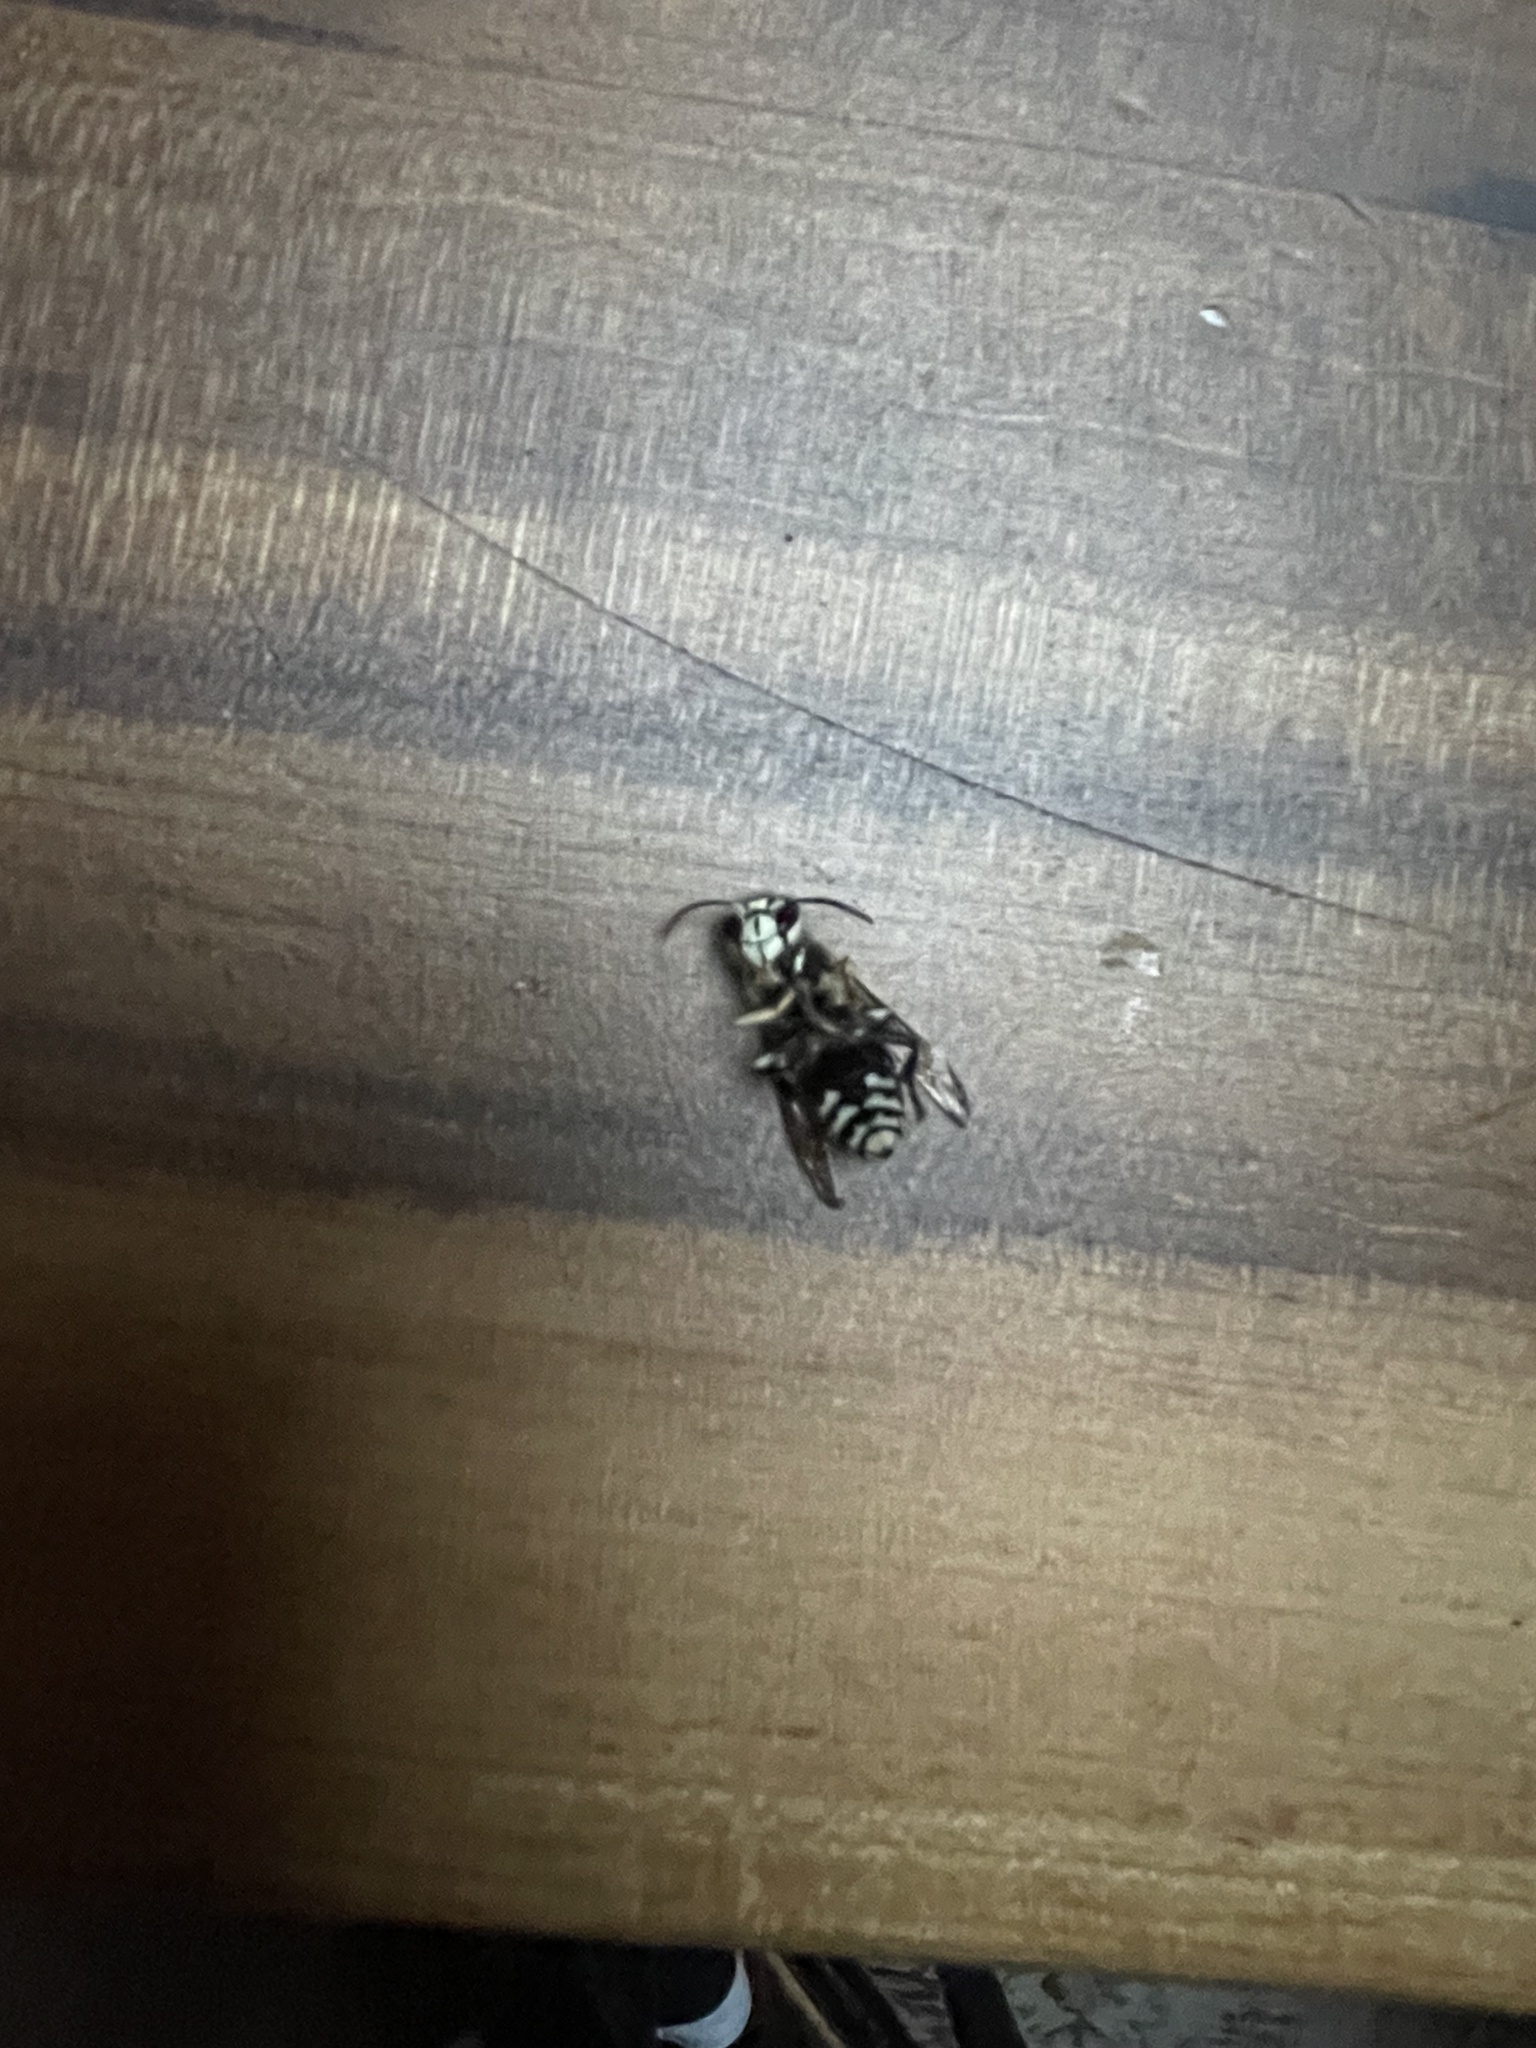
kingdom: Animalia
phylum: Arthropoda
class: Insecta
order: Hymenoptera
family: Vespidae
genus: Dolichovespula
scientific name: Dolichovespula maculata
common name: Bald-faced hornet
